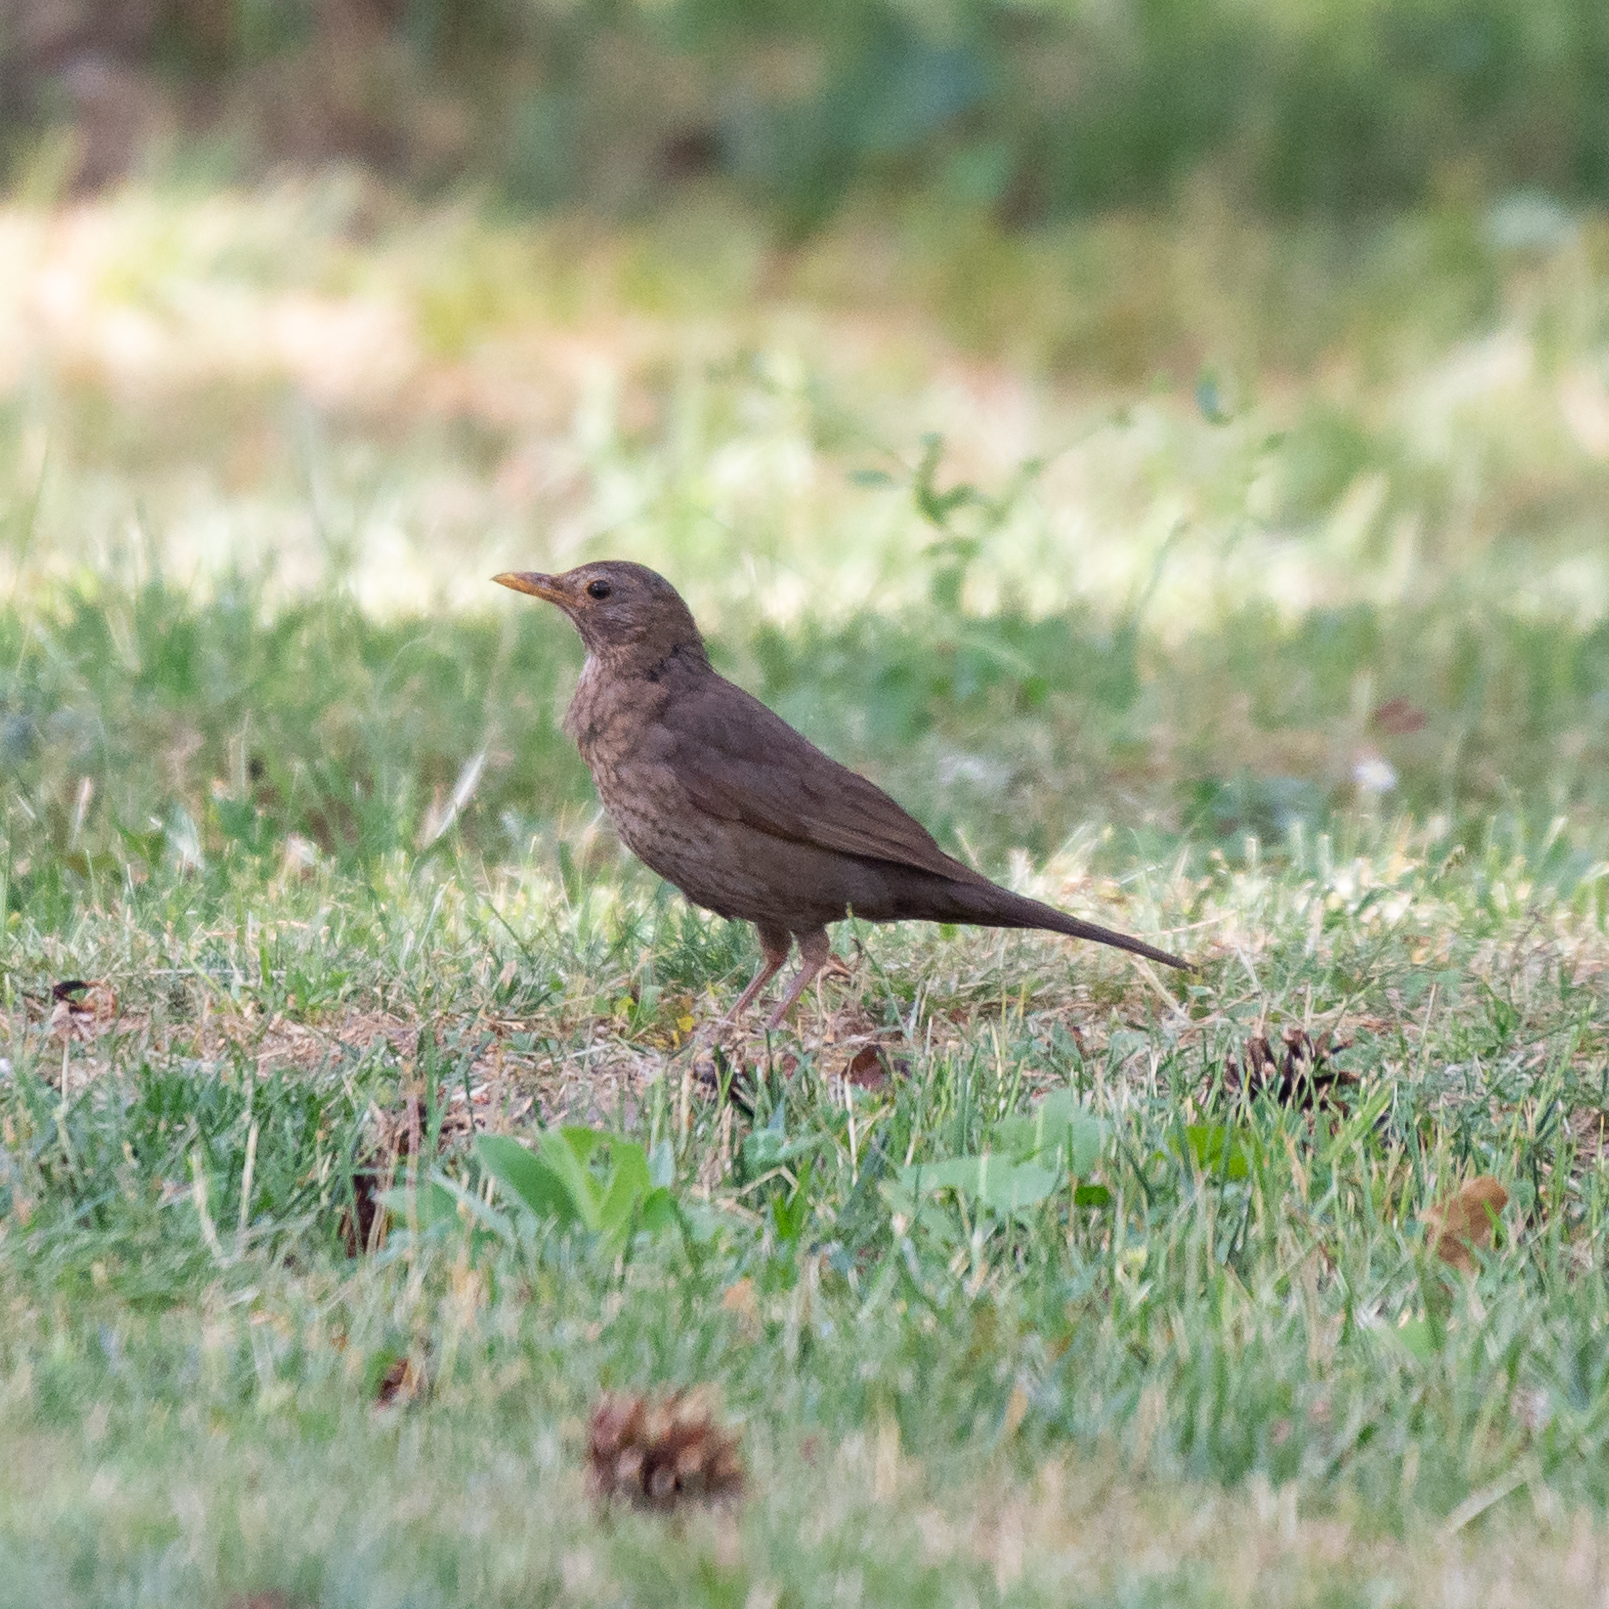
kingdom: Animalia
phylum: Chordata
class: Aves
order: Passeriformes
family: Turdidae
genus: Turdus
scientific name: Turdus merula
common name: Common blackbird
